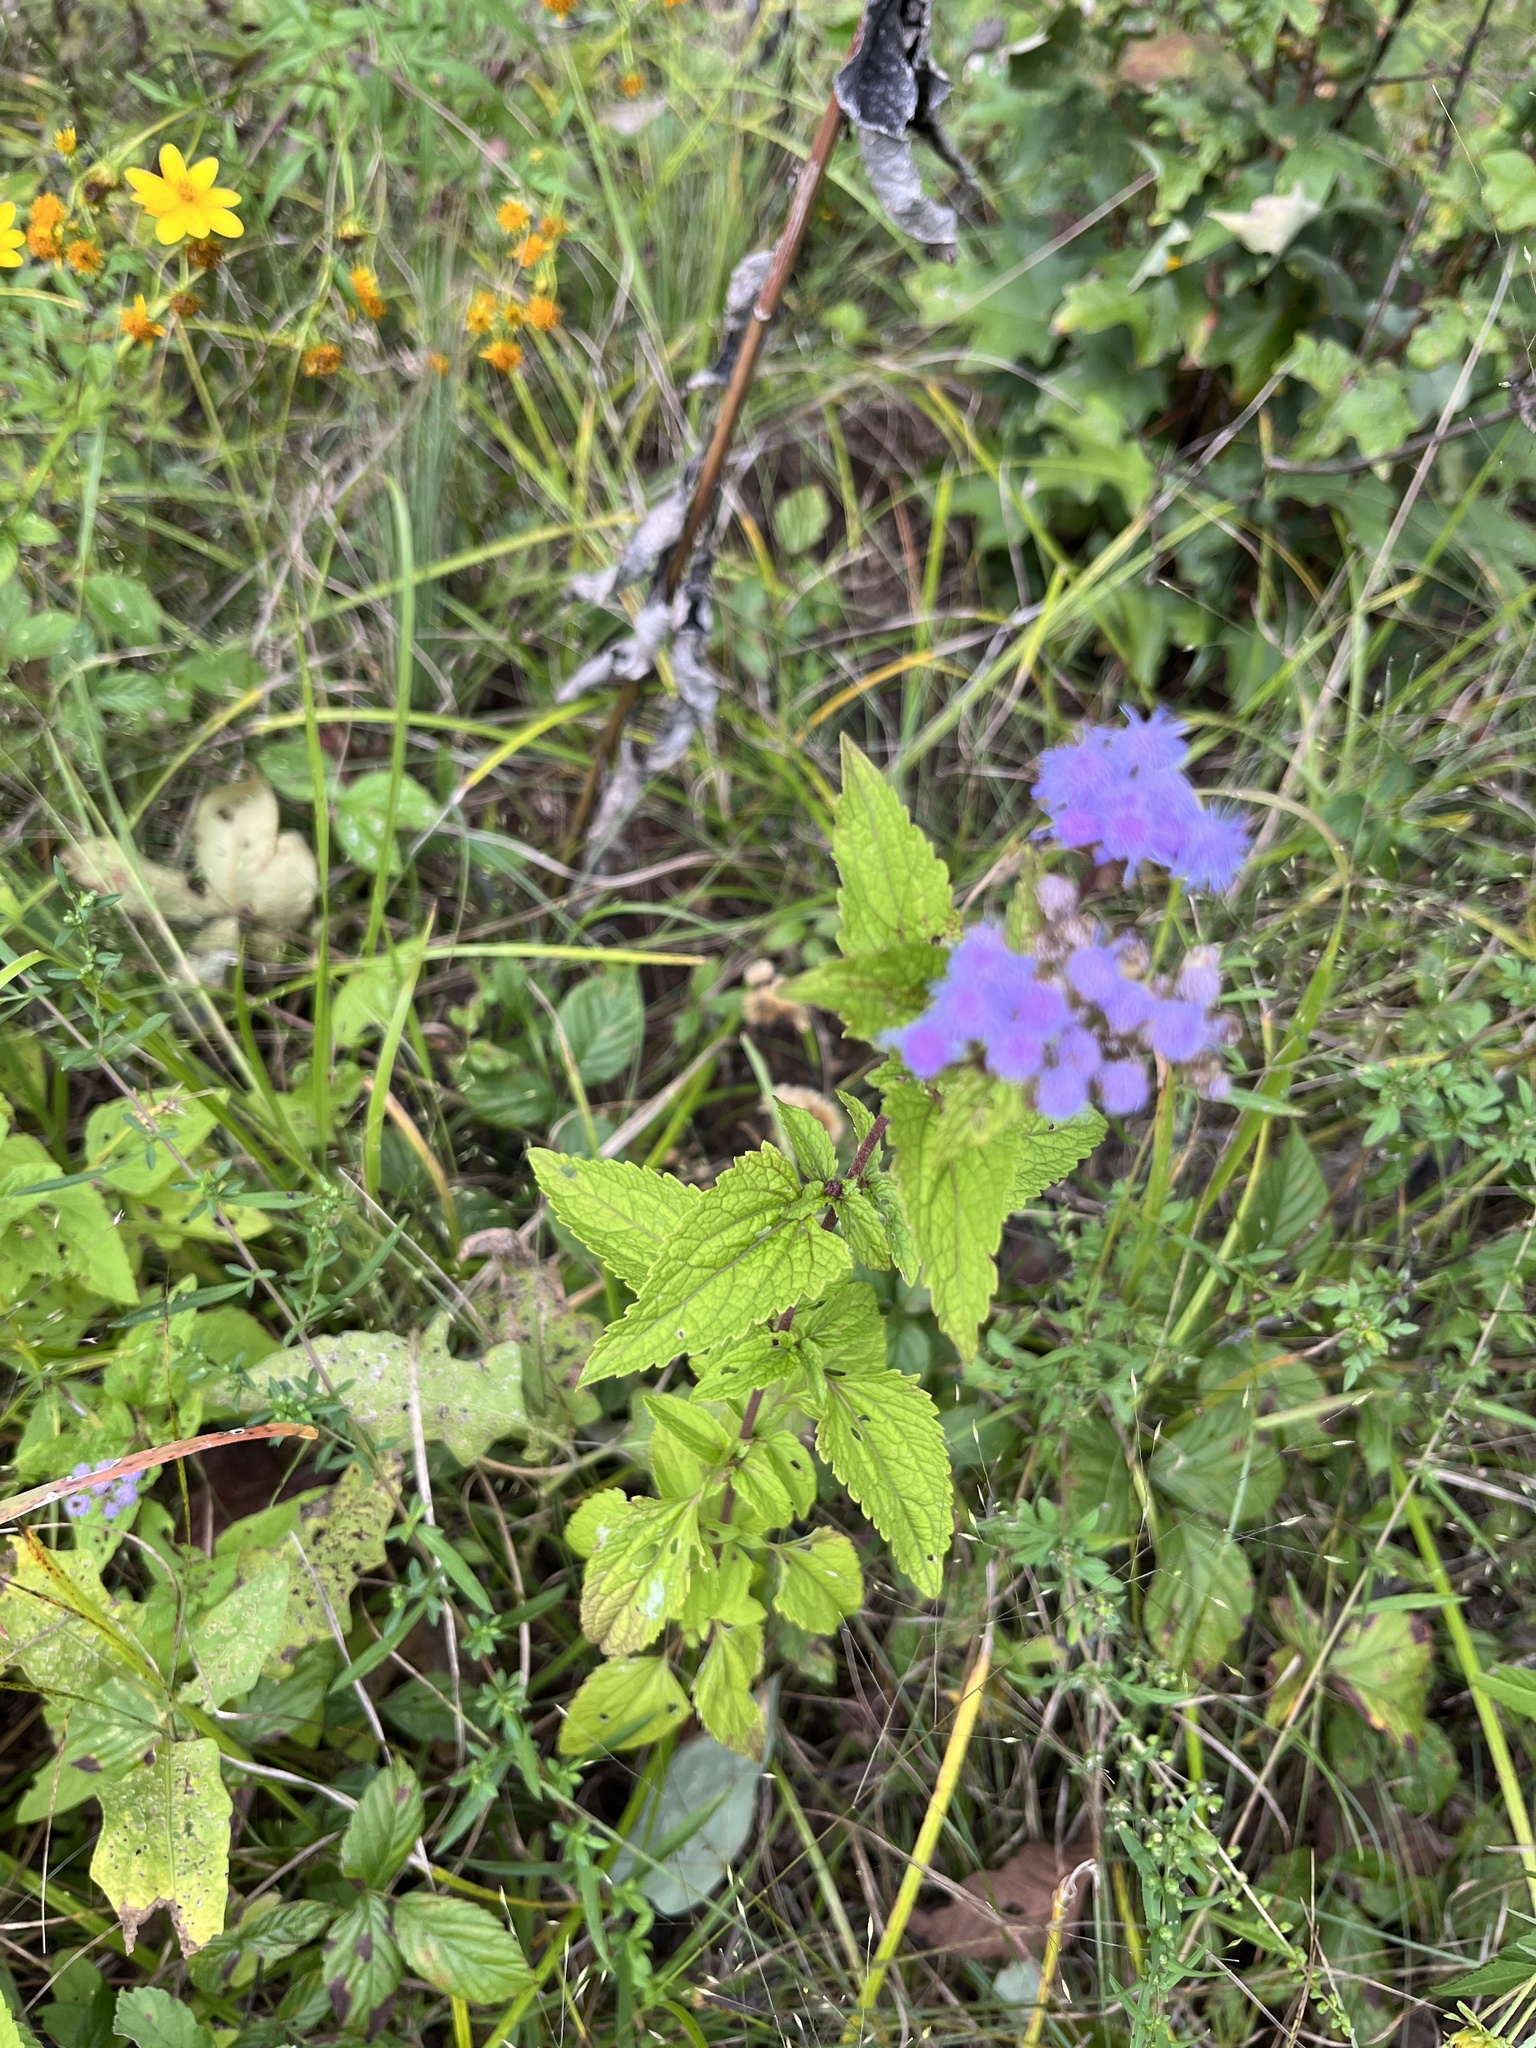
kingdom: Plantae
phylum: Tracheophyta
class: Magnoliopsida
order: Asterales
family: Asteraceae
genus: Conoclinium
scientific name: Conoclinium coelestinum
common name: Blue mistflower
